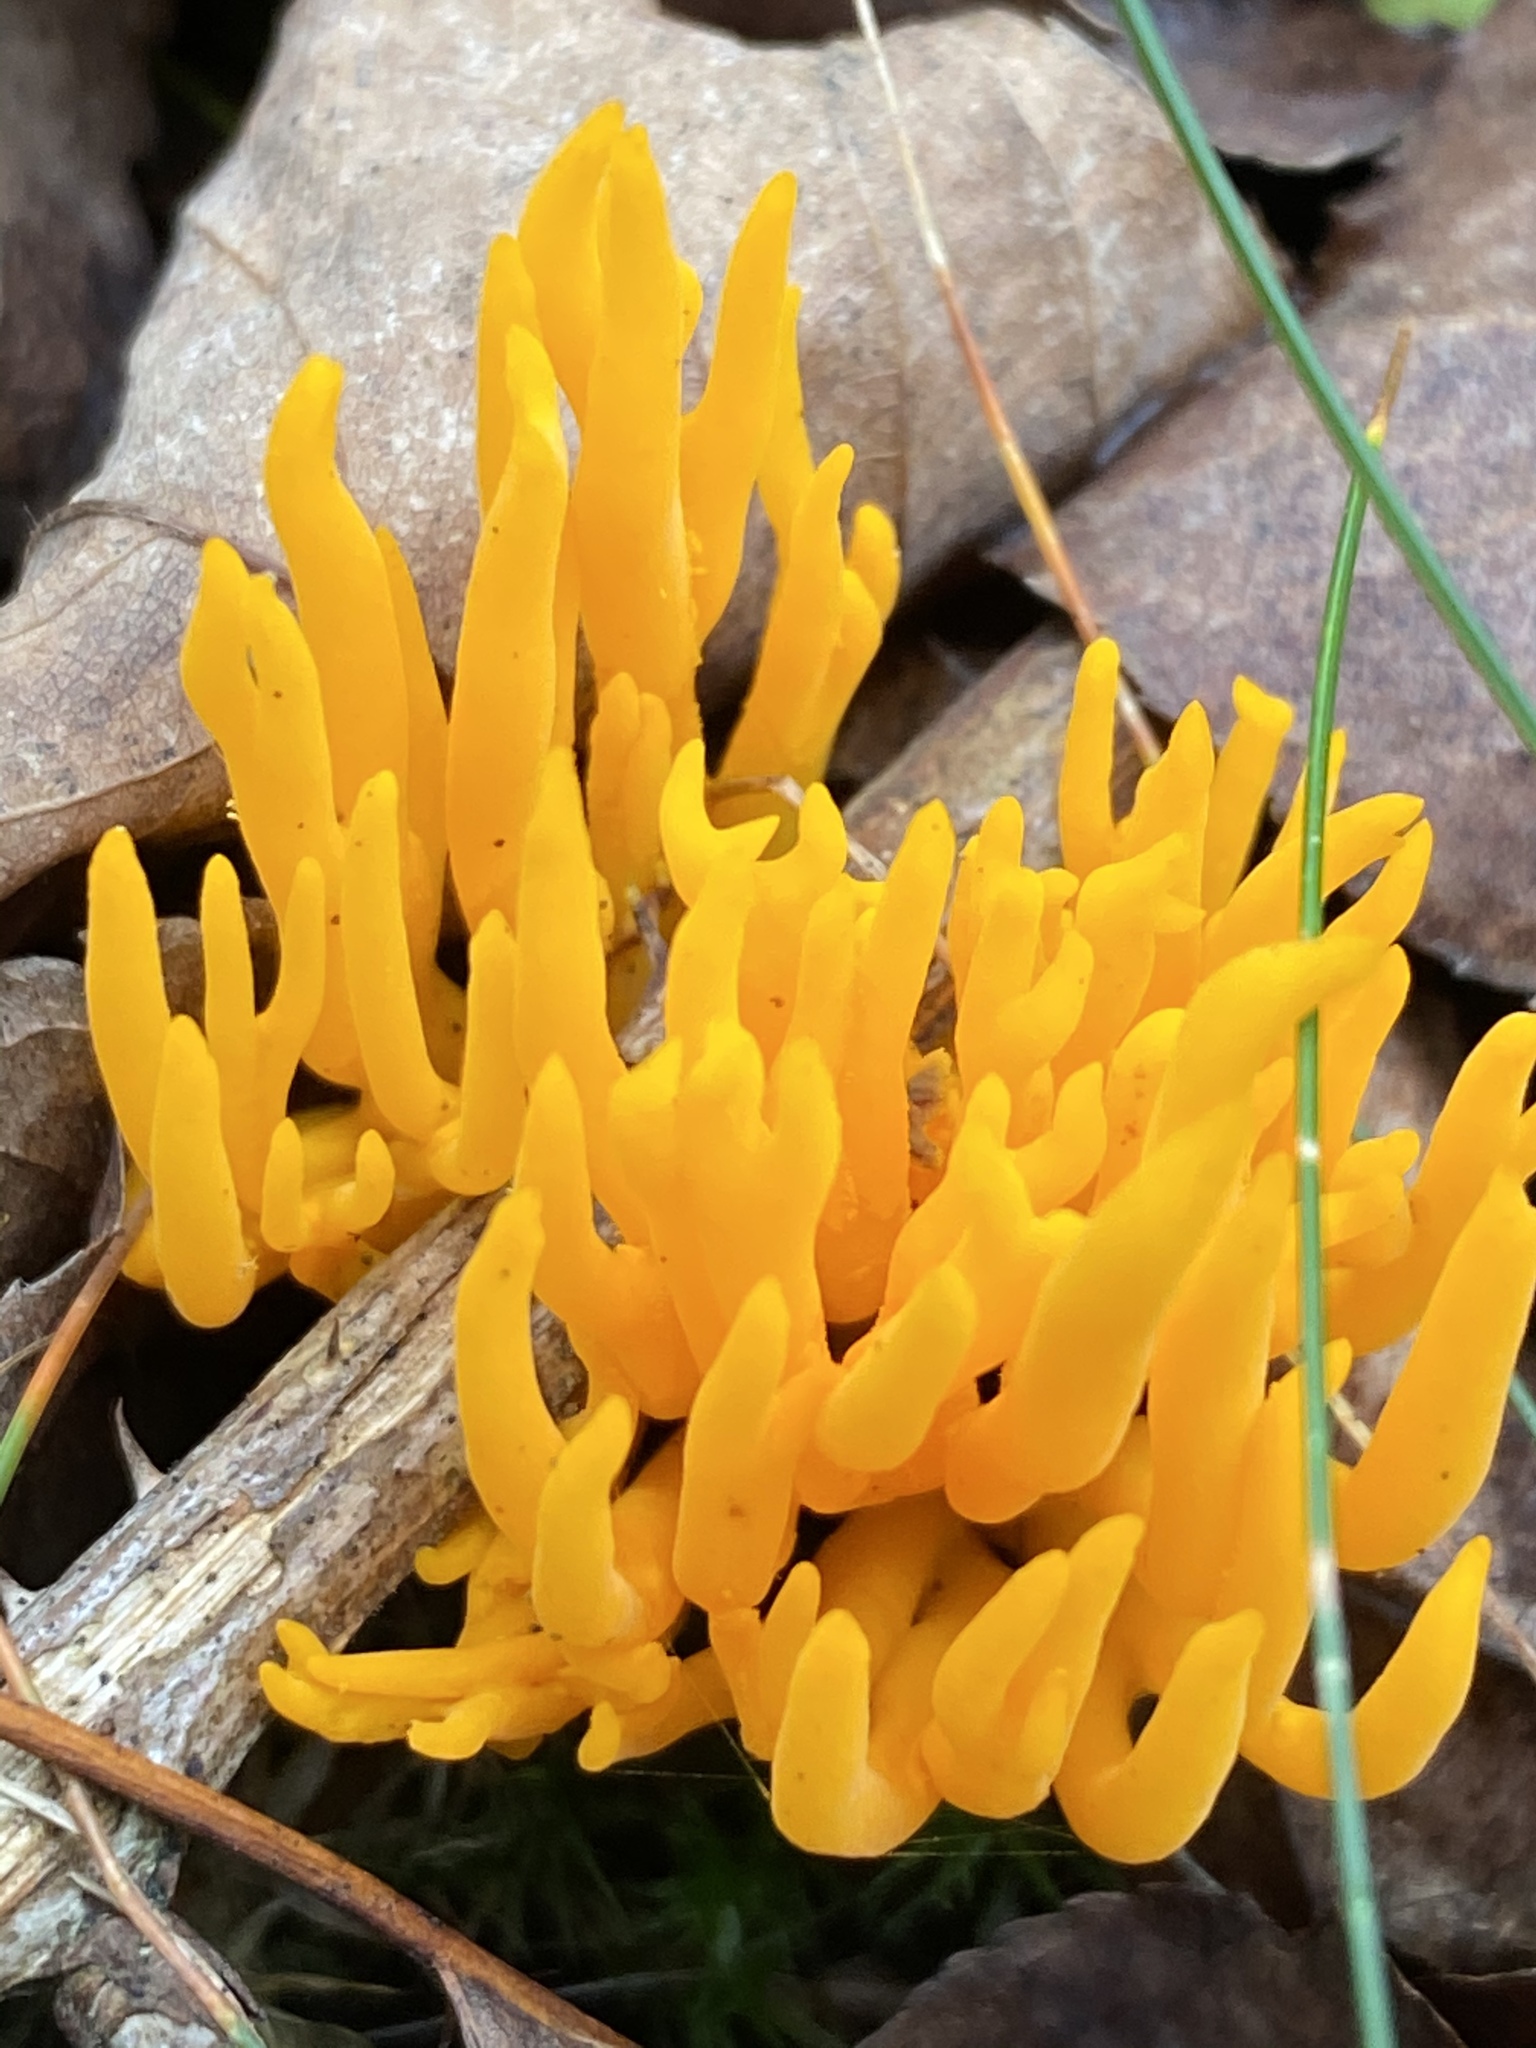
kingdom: Fungi
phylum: Basidiomycota
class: Dacrymycetes
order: Dacrymycetales
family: Dacrymycetaceae
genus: Calocera
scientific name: Calocera viscosa
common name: Yellow stagshorn
